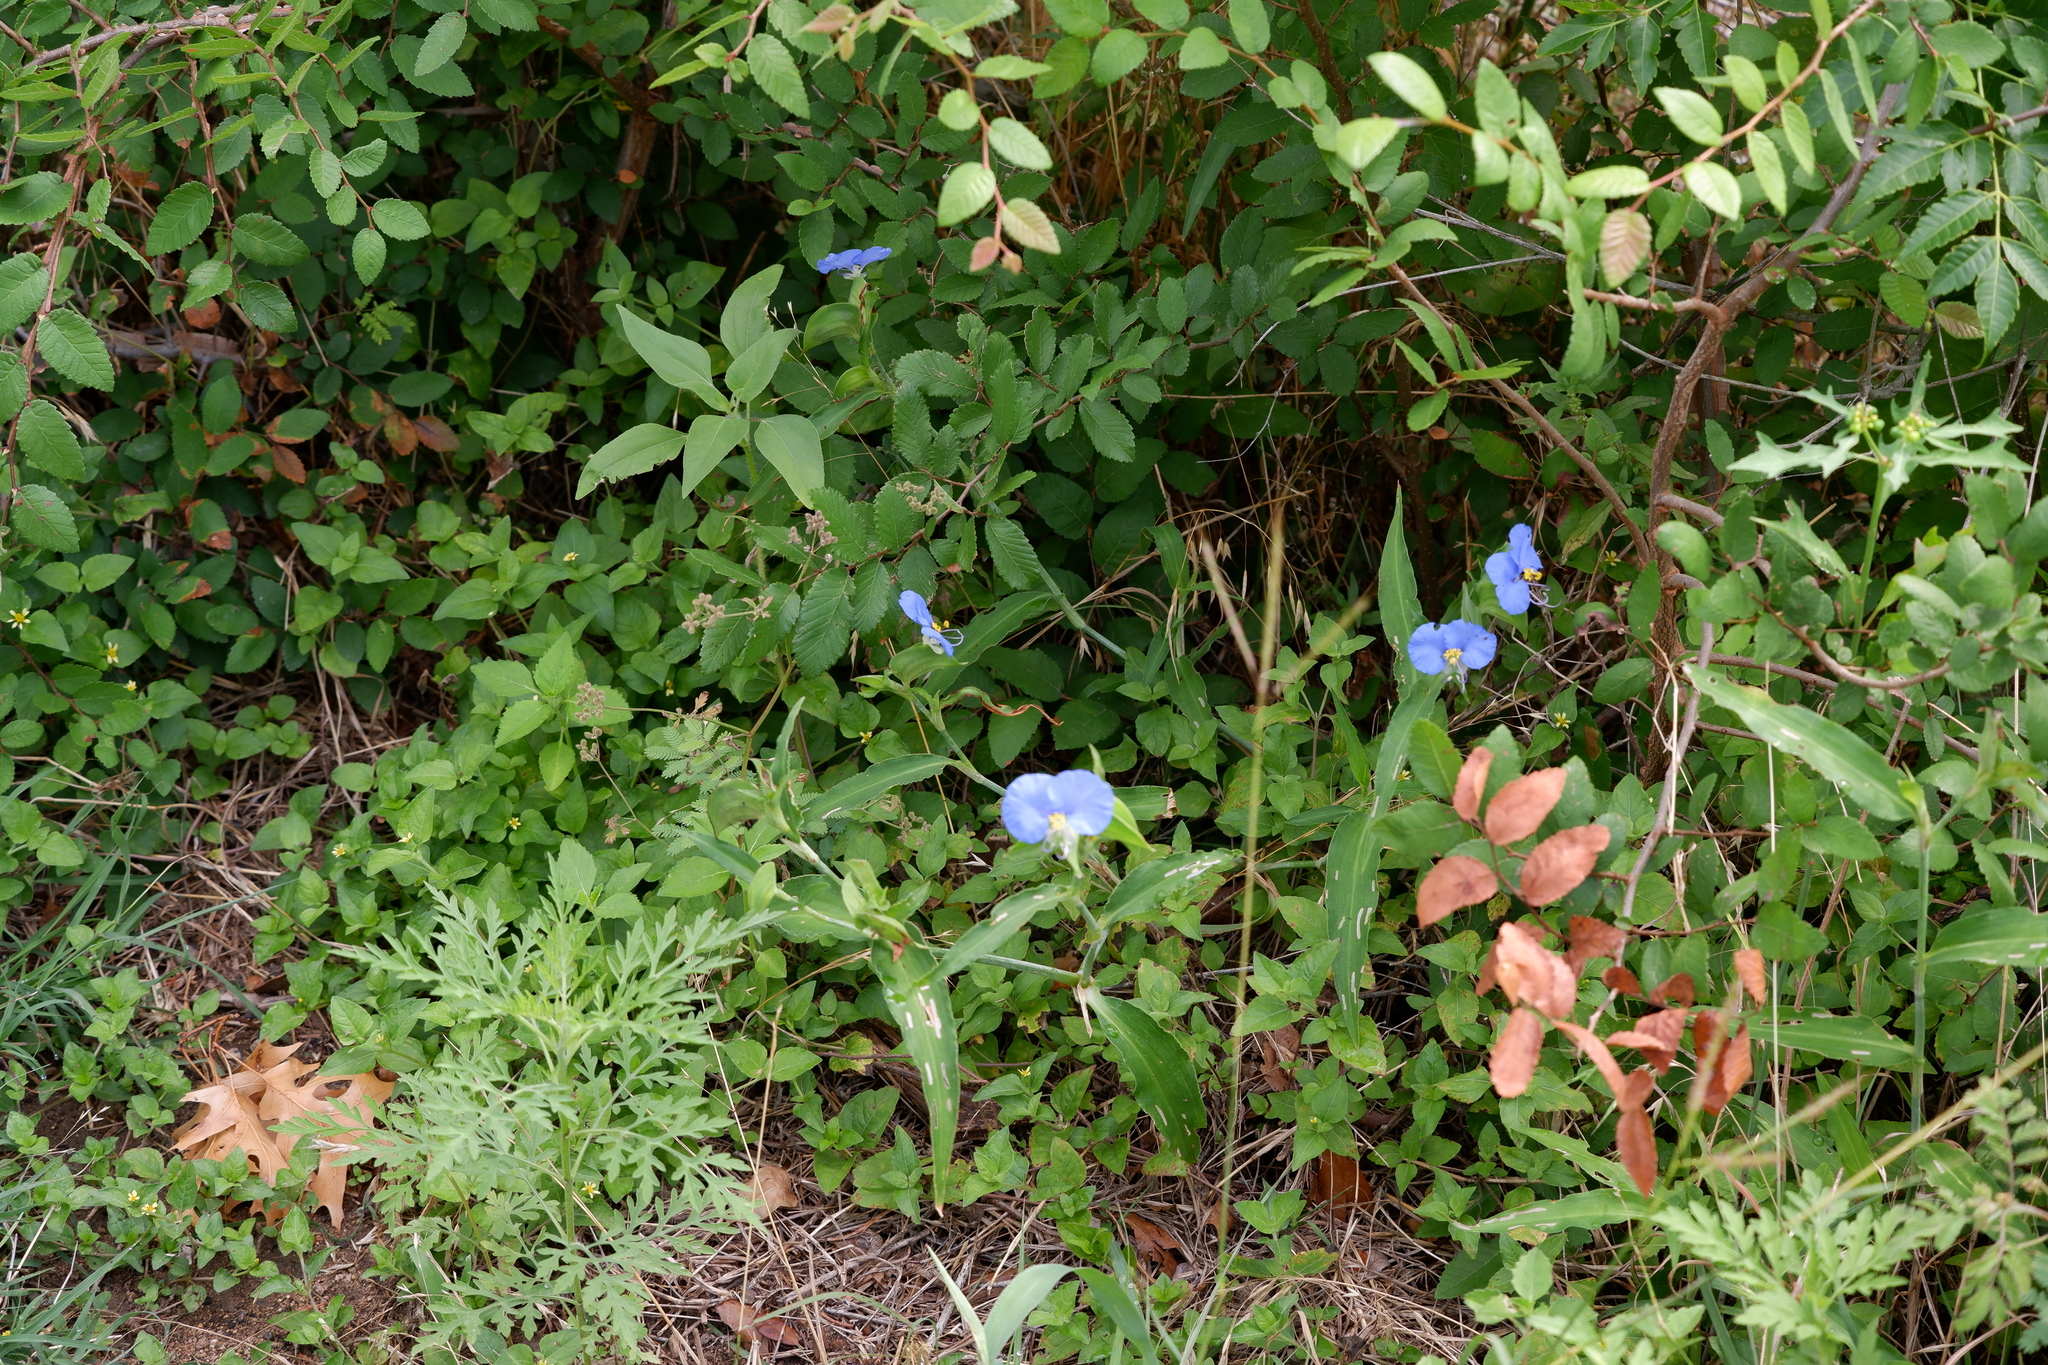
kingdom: Plantae
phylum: Tracheophyta
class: Liliopsida
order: Commelinales
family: Commelinaceae
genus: Commelina
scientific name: Commelina erecta
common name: Blousel blommetjie
